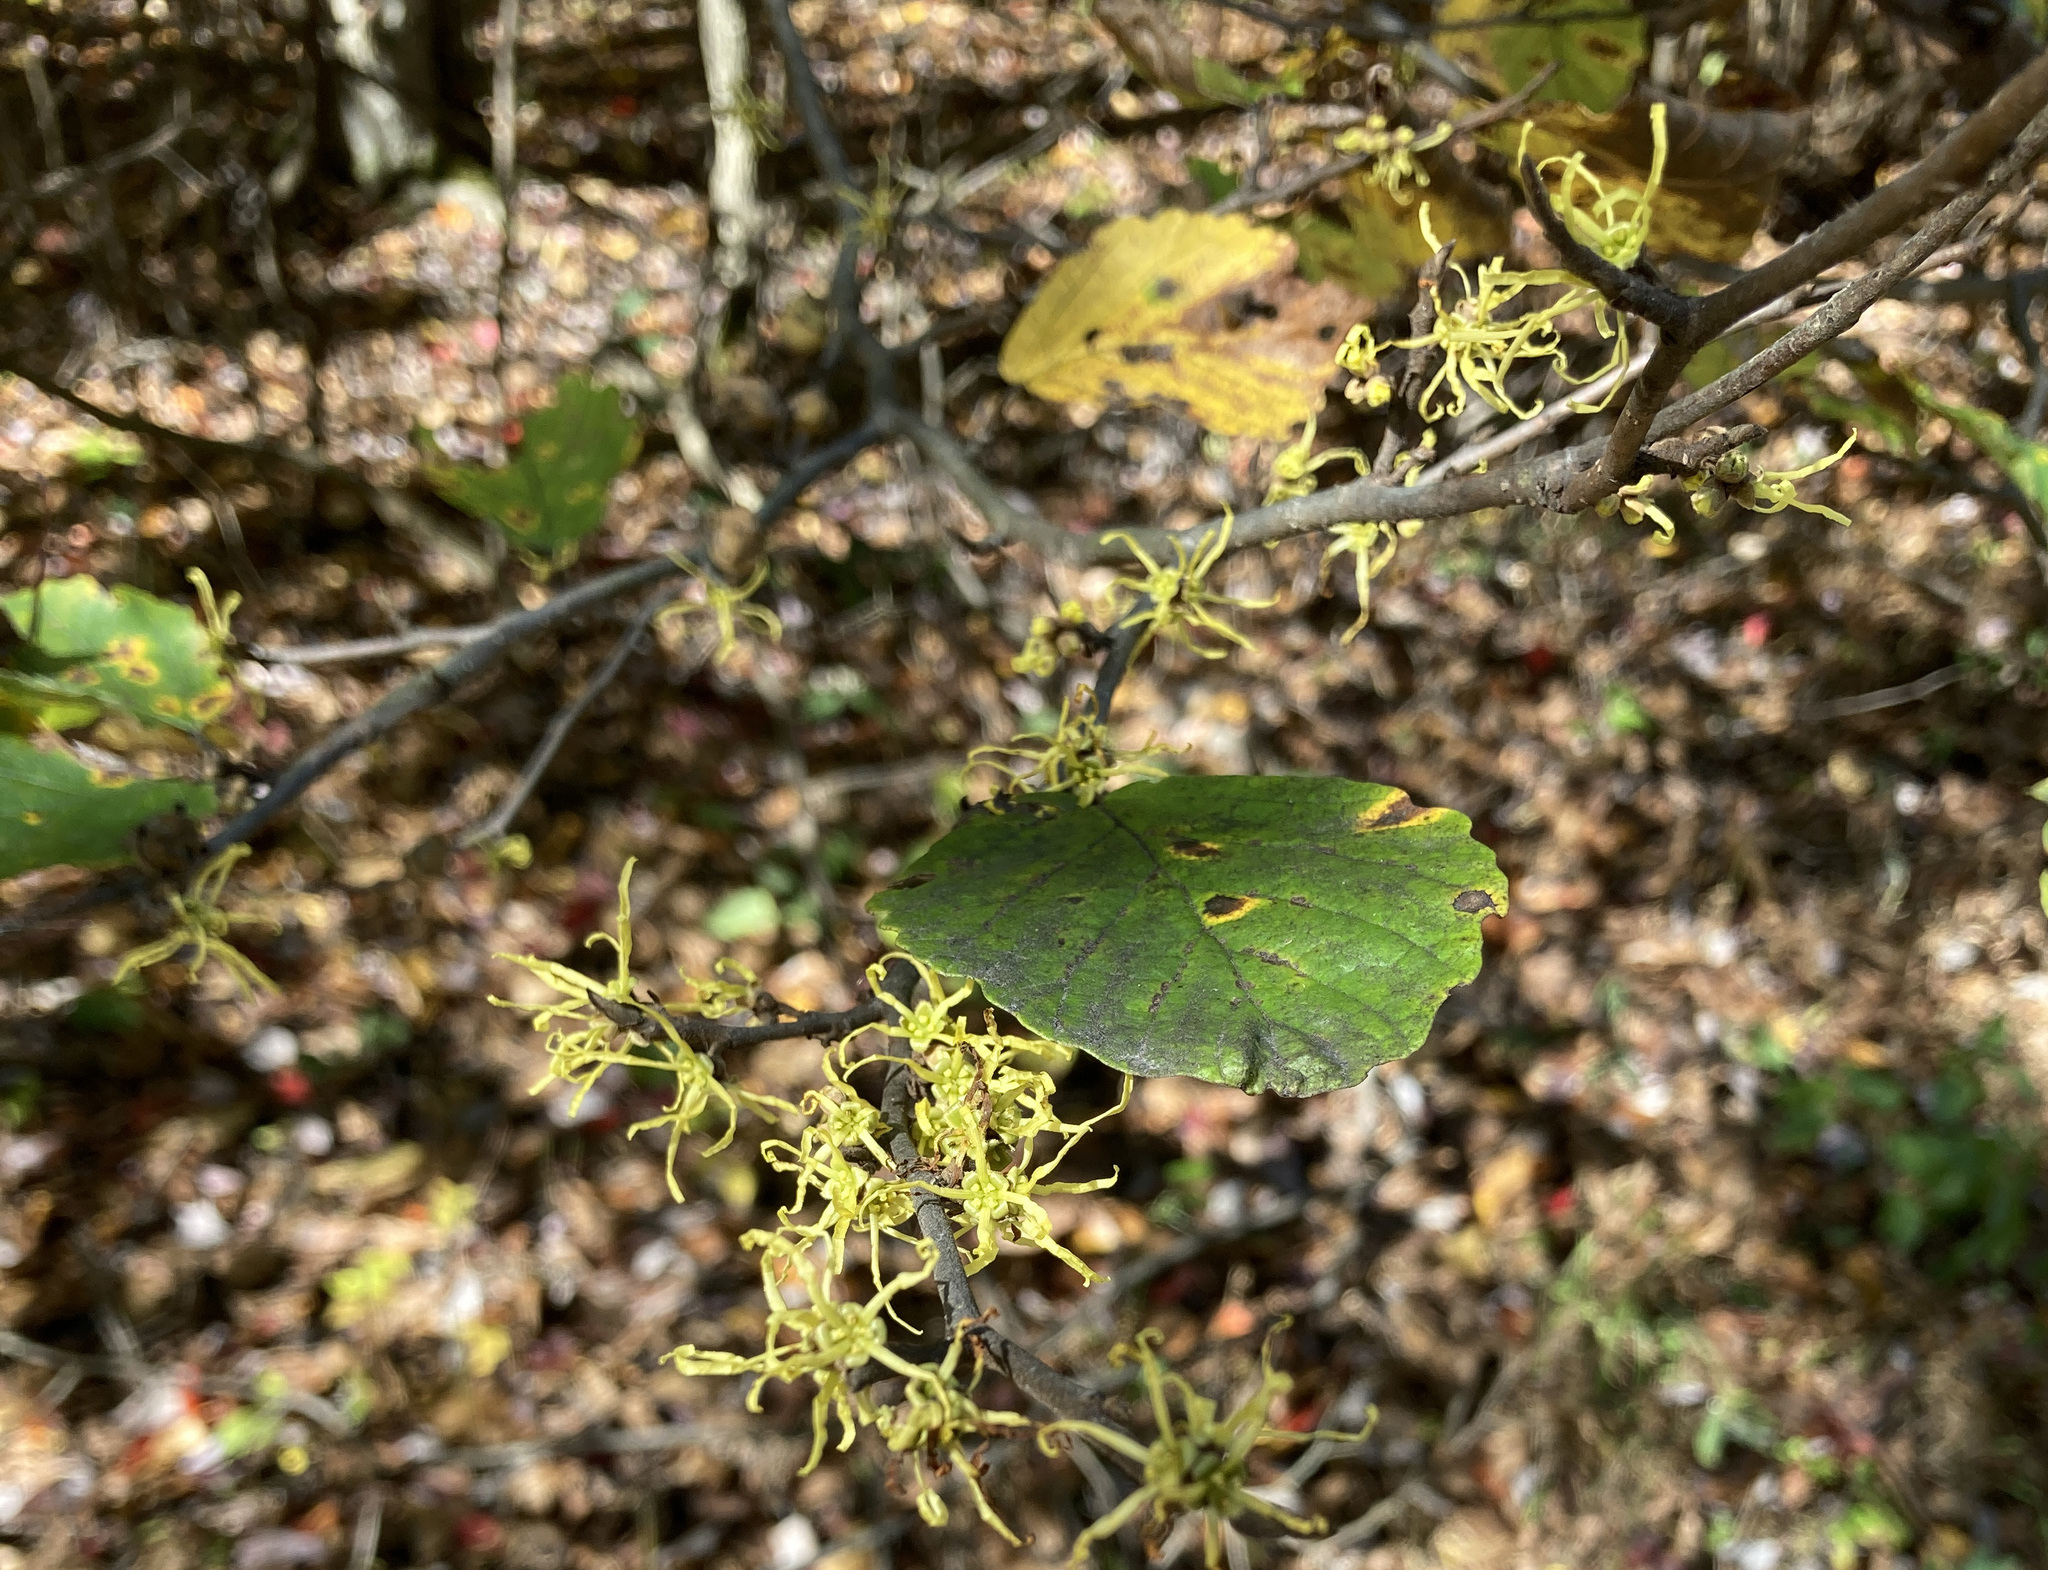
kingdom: Plantae
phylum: Tracheophyta
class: Magnoliopsida
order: Saxifragales
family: Hamamelidaceae
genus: Hamamelis
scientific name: Hamamelis virginiana
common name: Witch-hazel
